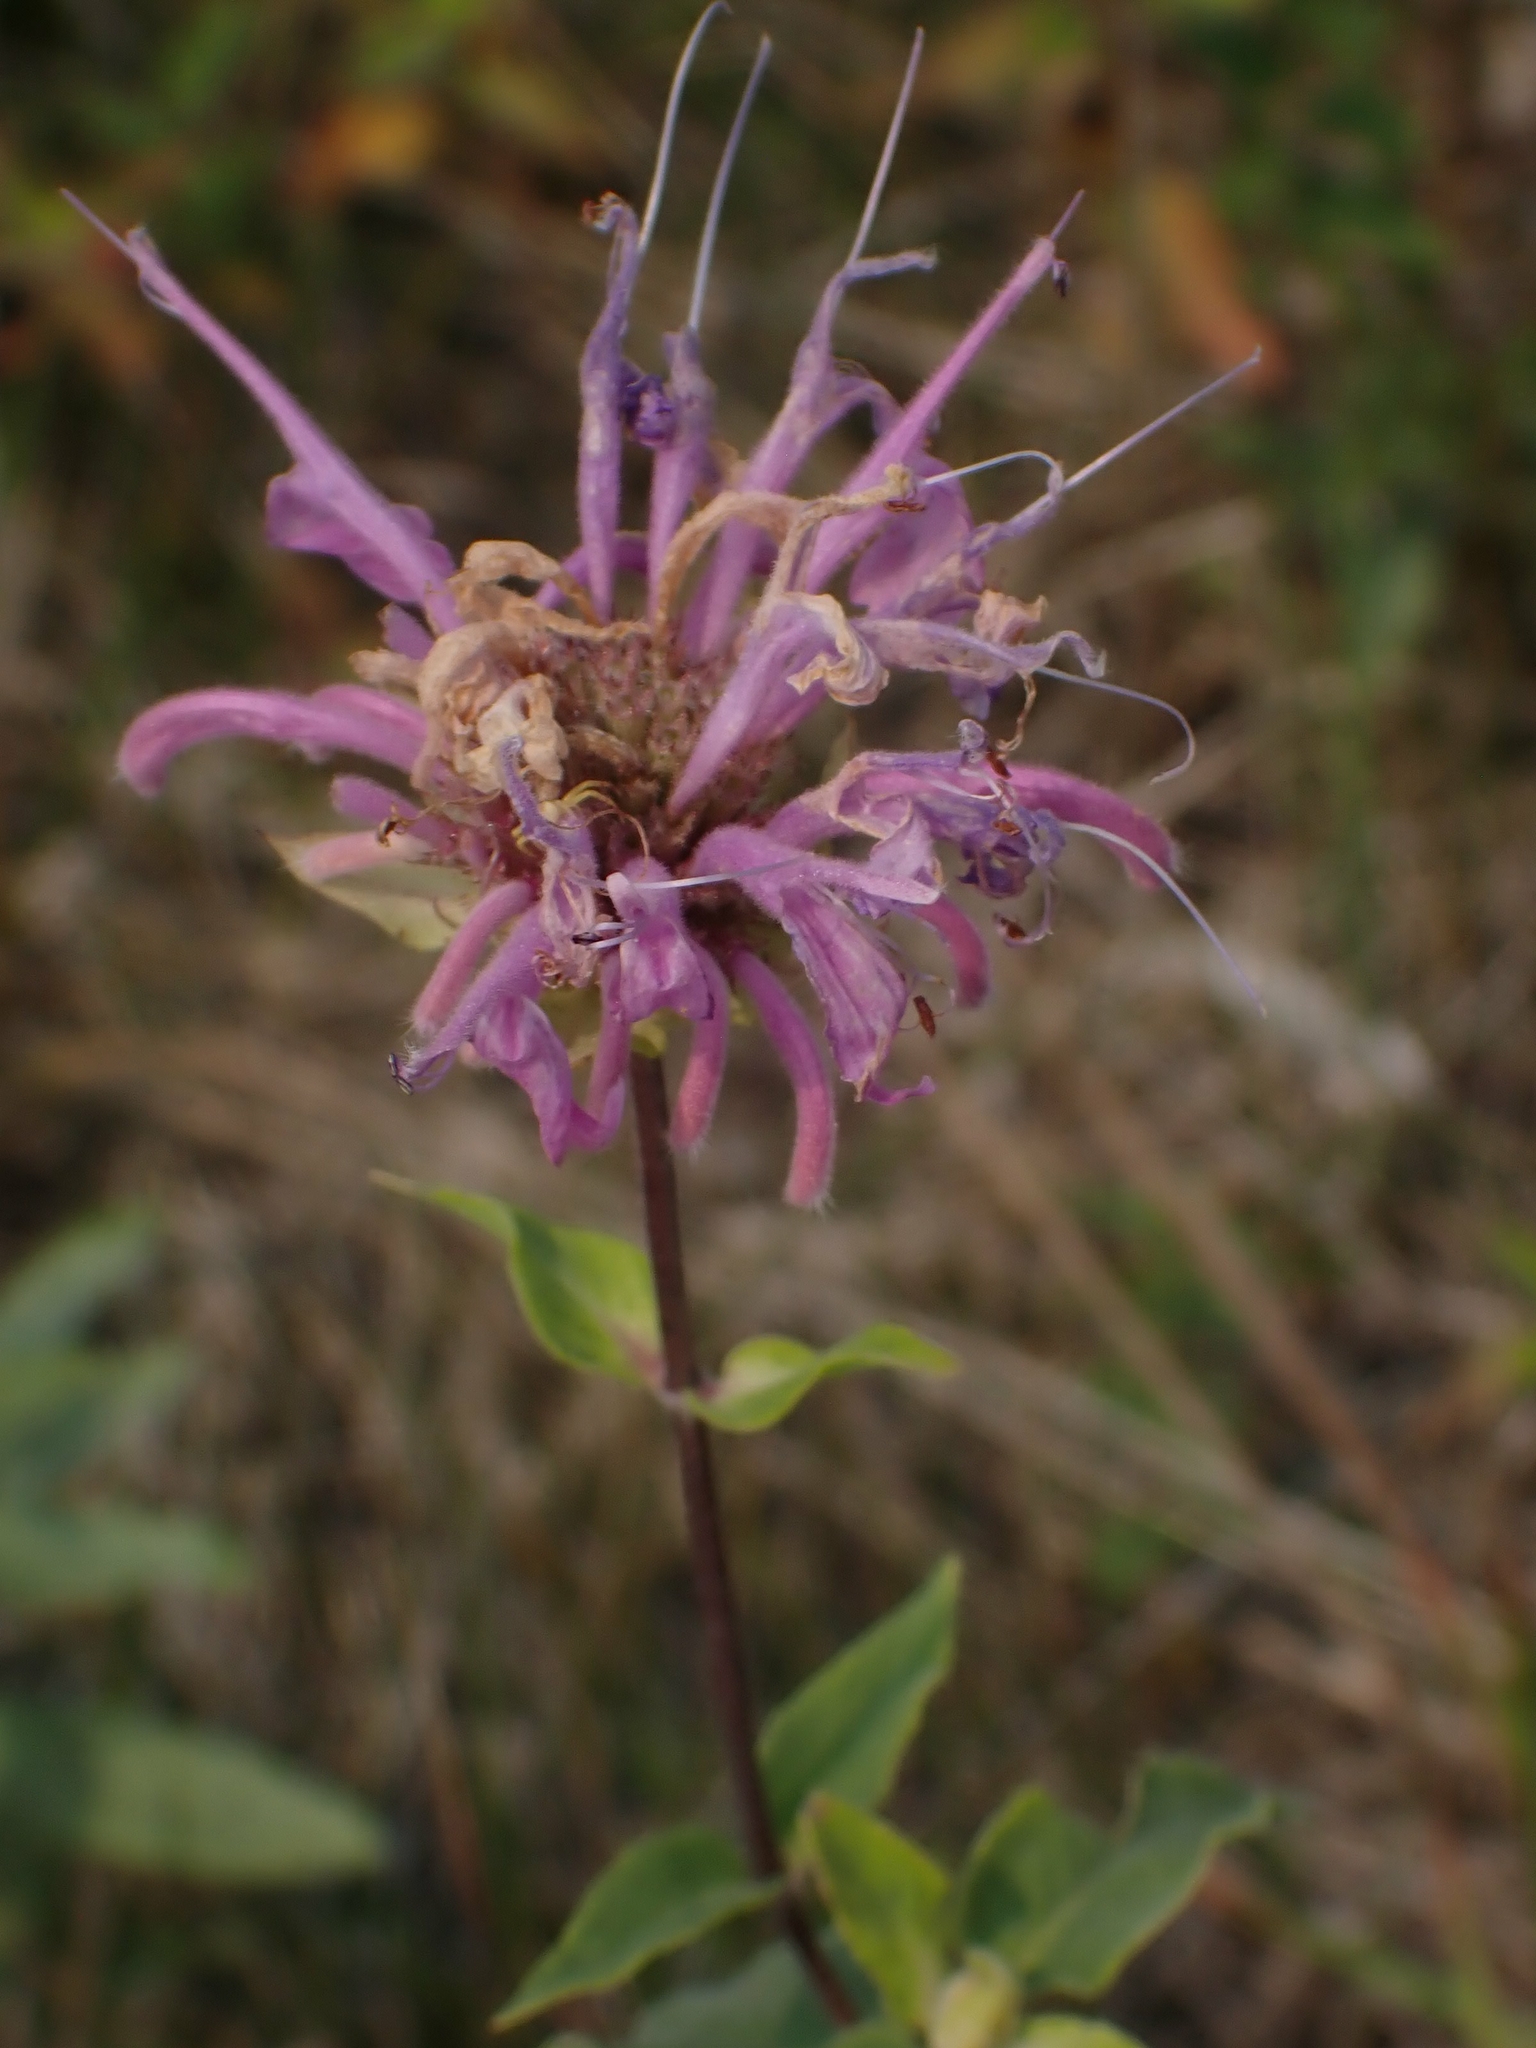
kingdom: Plantae
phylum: Tracheophyta
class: Magnoliopsida
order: Lamiales
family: Lamiaceae
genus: Monarda
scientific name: Monarda fistulosa
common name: Purple beebalm
